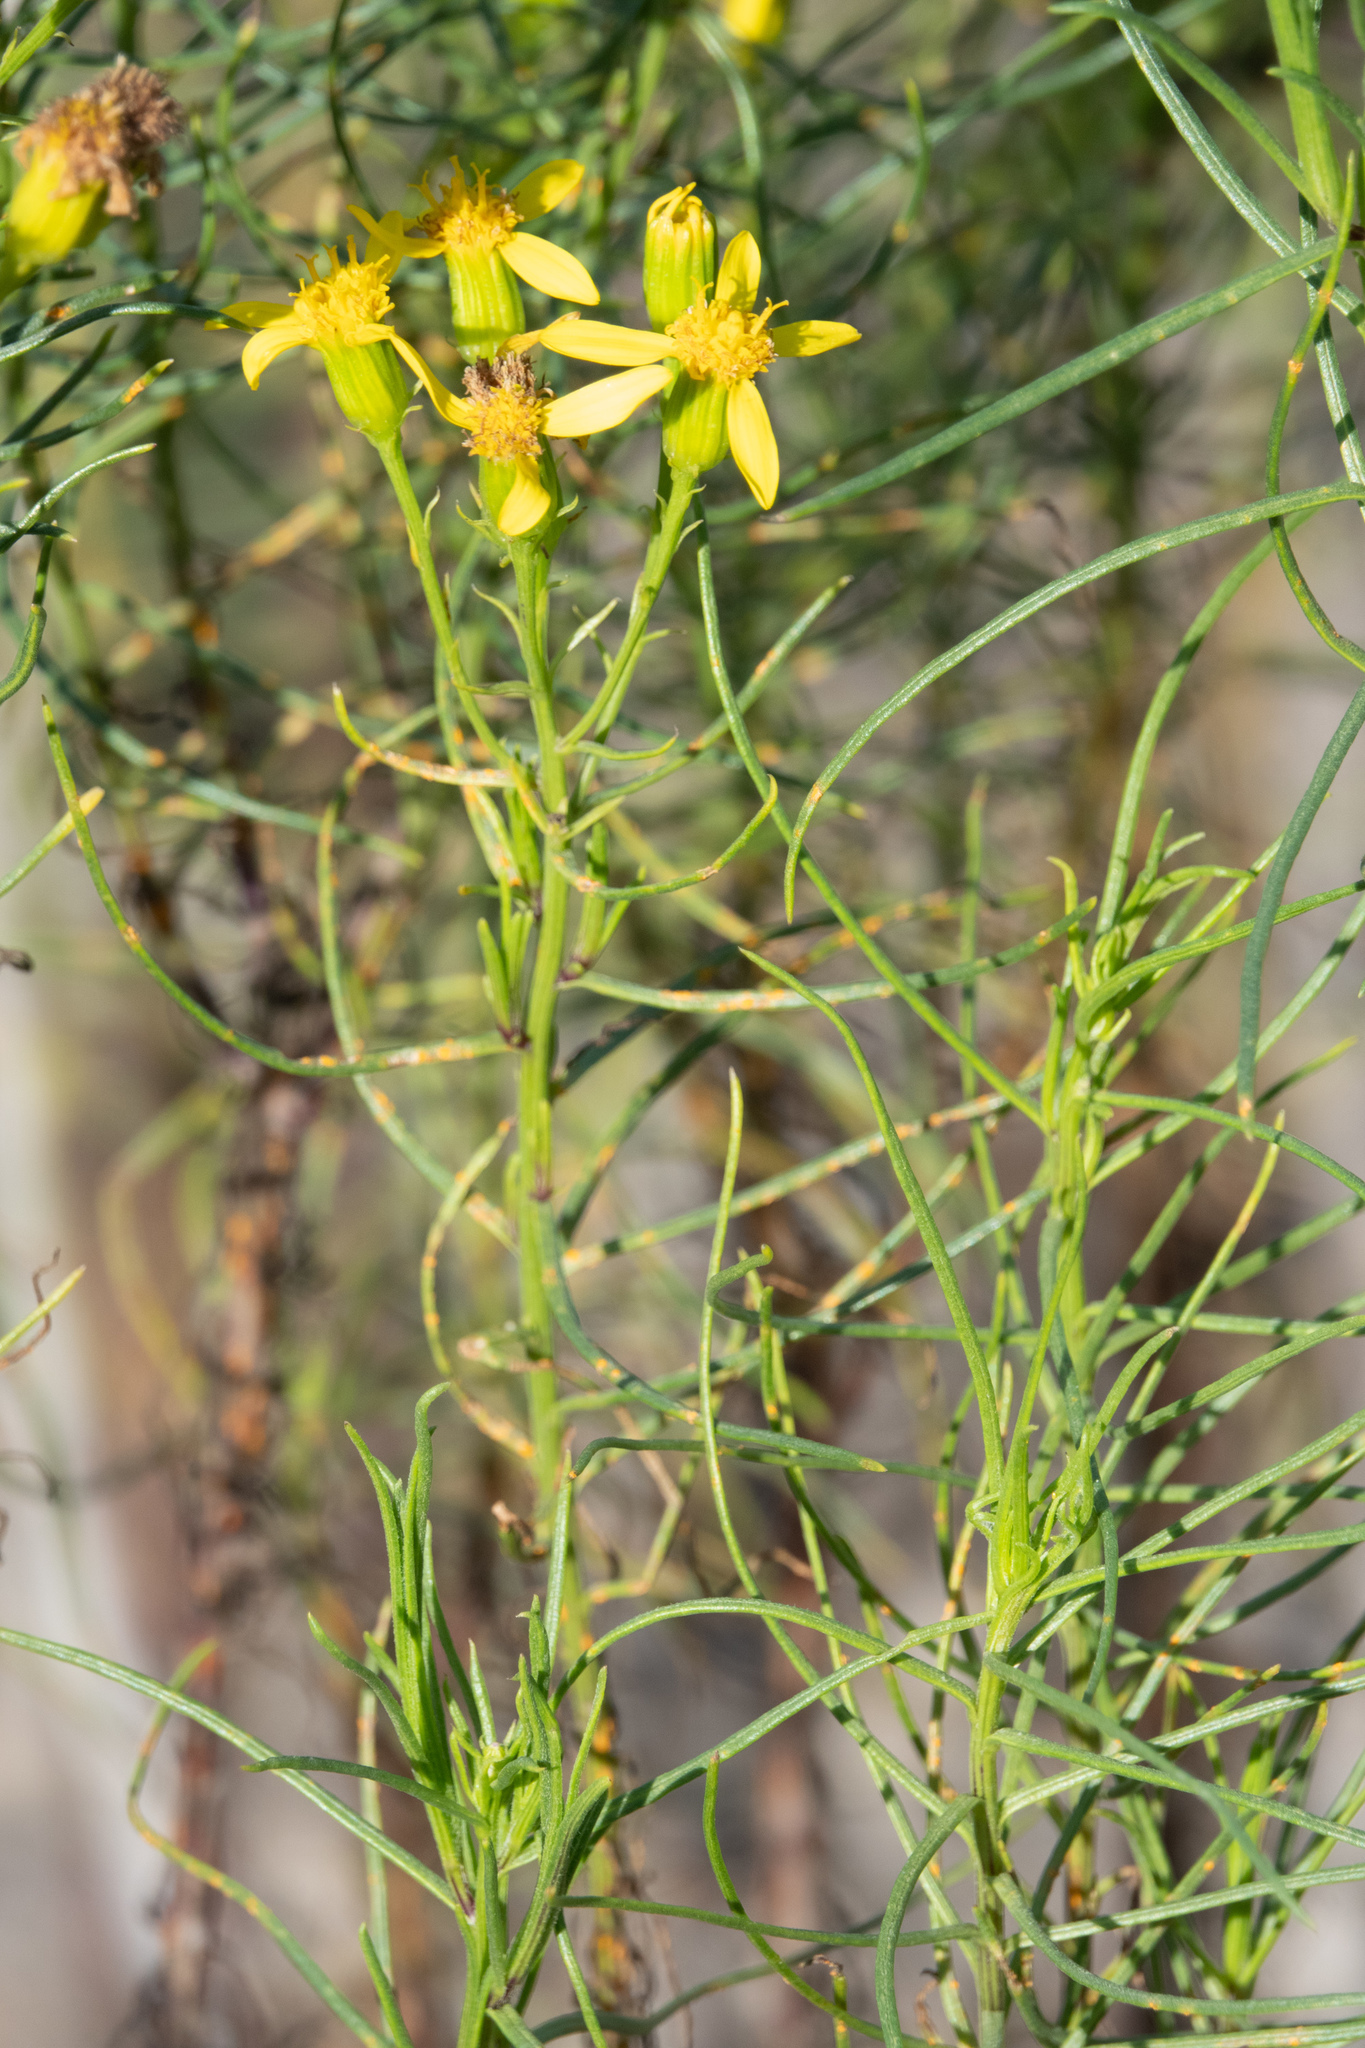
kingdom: Plantae
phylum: Tracheophyta
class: Magnoliopsida
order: Asterales
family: Asteraceae
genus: Senecio
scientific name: Senecio blochmaniae
